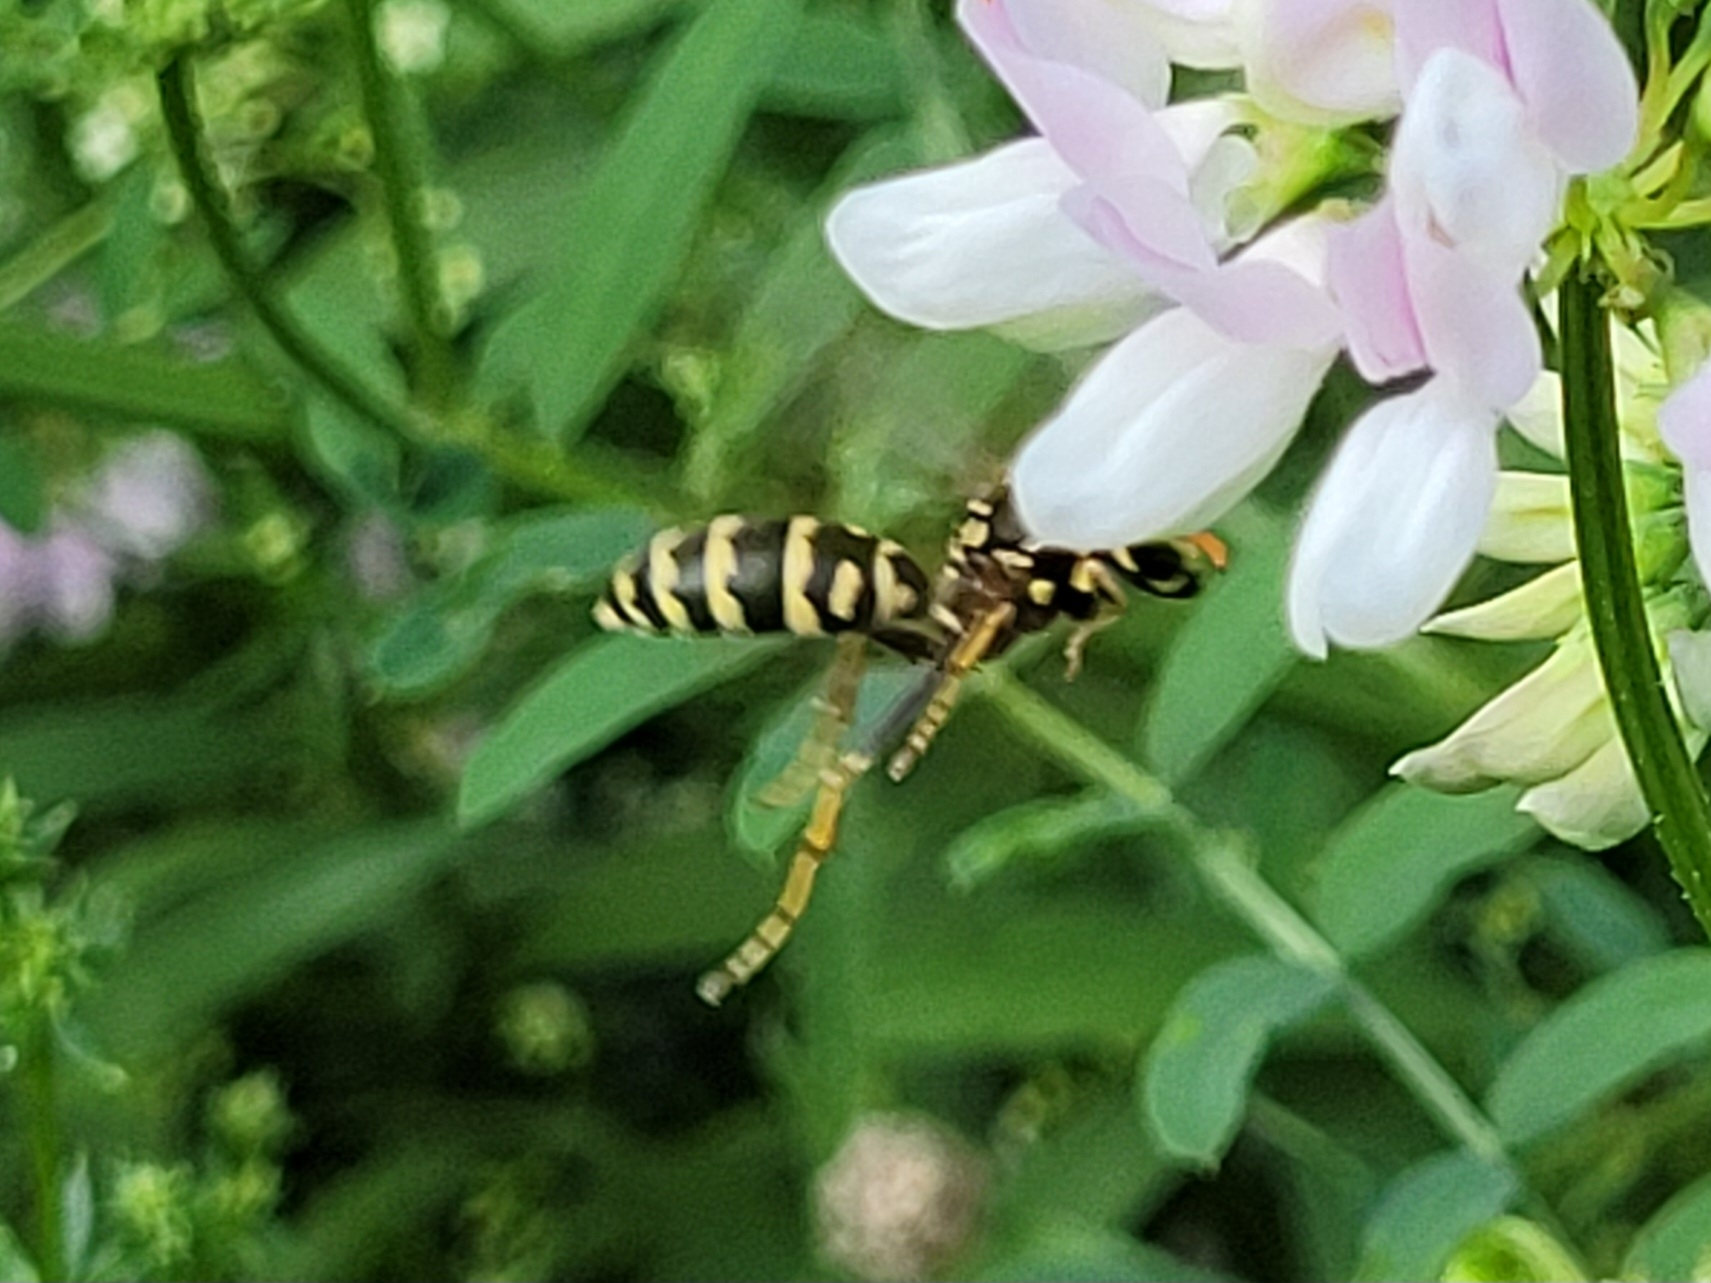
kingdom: Animalia
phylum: Arthropoda
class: Insecta
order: Hymenoptera
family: Eumenidae
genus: Polistes
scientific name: Polistes dominula
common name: Paper wasp
